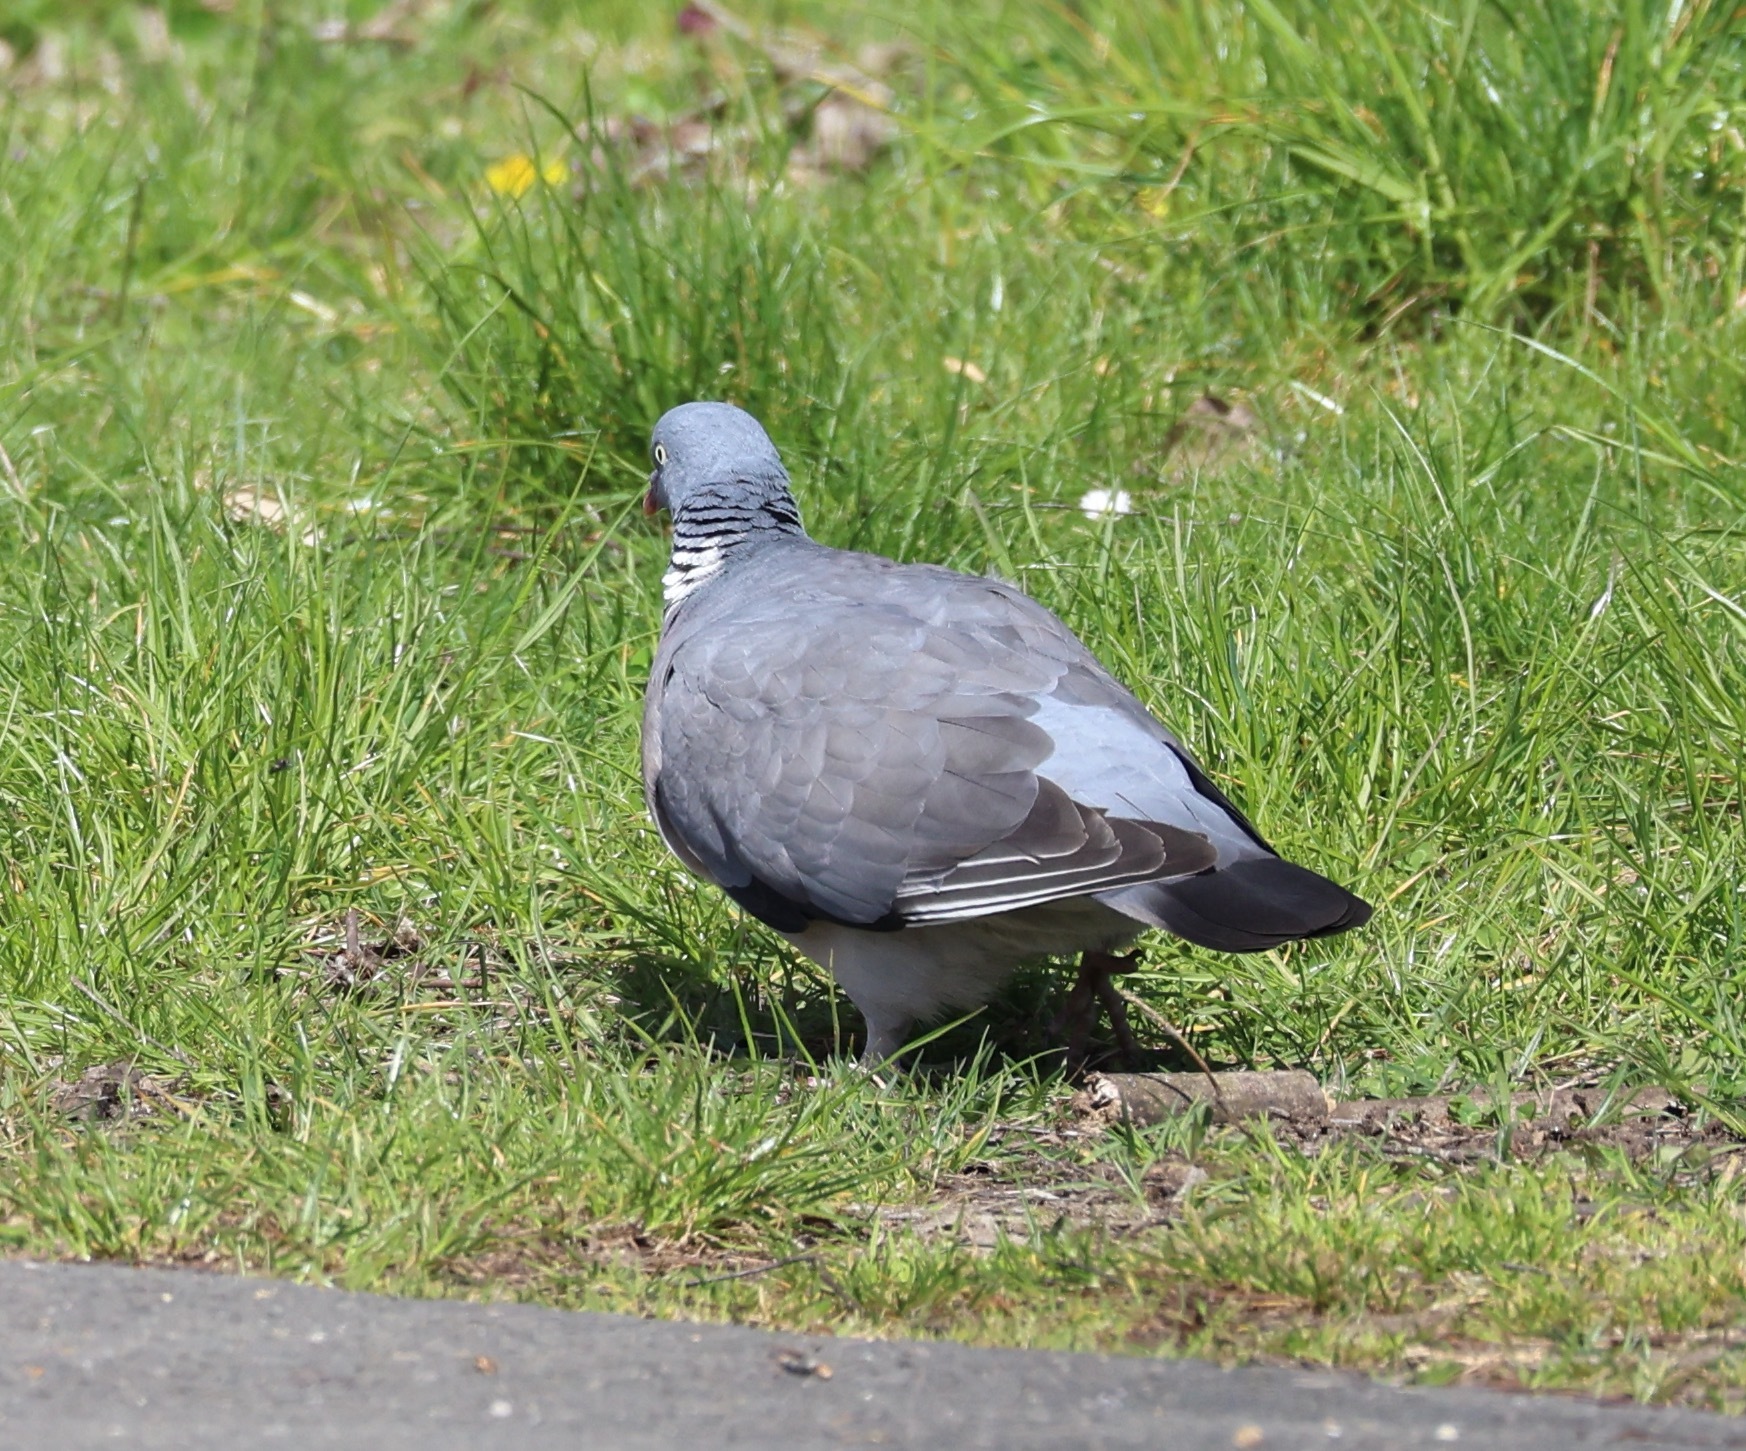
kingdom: Animalia
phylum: Chordata
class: Aves
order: Columbiformes
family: Columbidae
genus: Columba
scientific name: Columba palumbus
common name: Common wood pigeon
